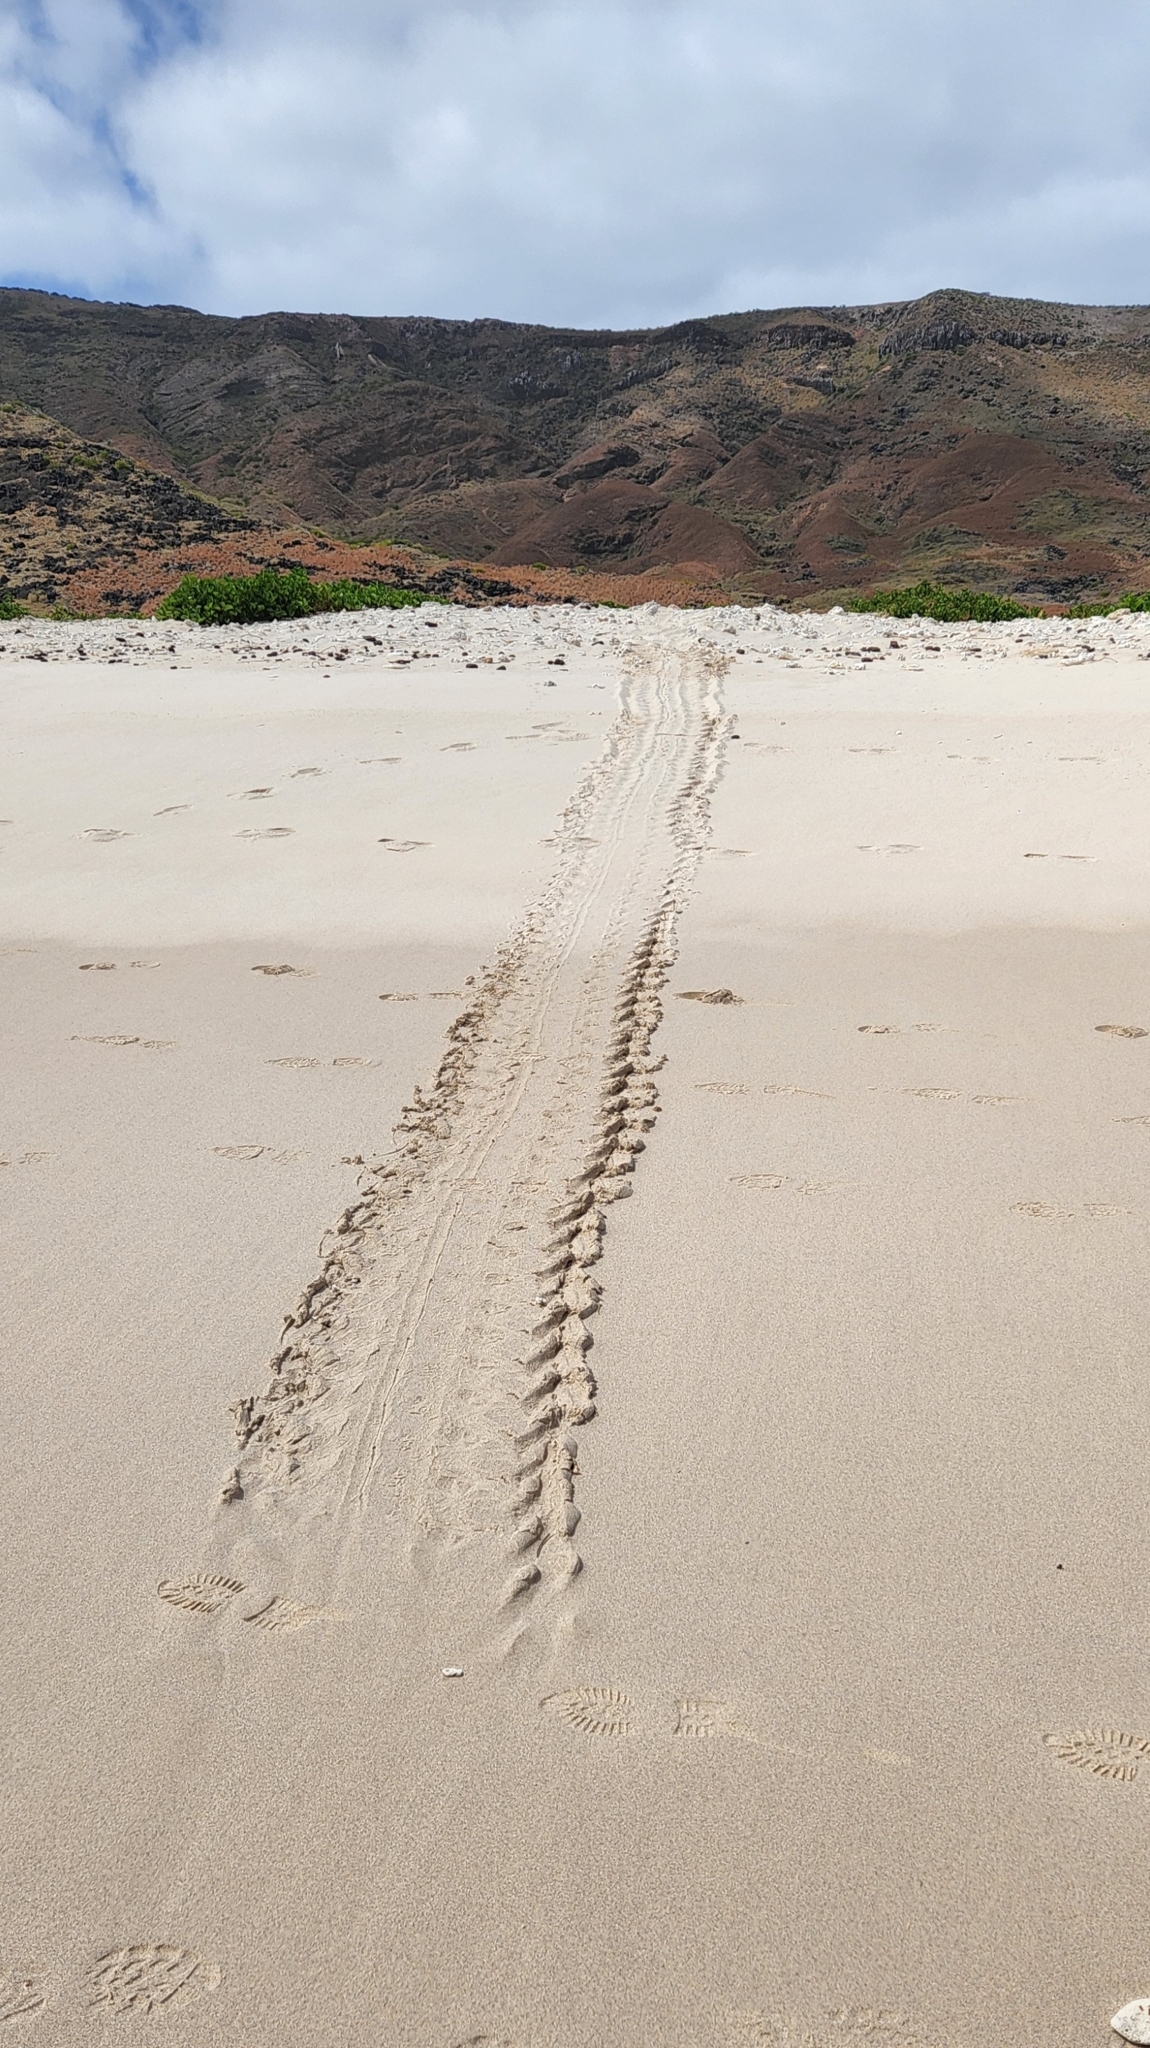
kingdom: Animalia
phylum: Chordata
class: Testudines
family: Cheloniidae
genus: Chelonia
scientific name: Chelonia mydas
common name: Green turtle
